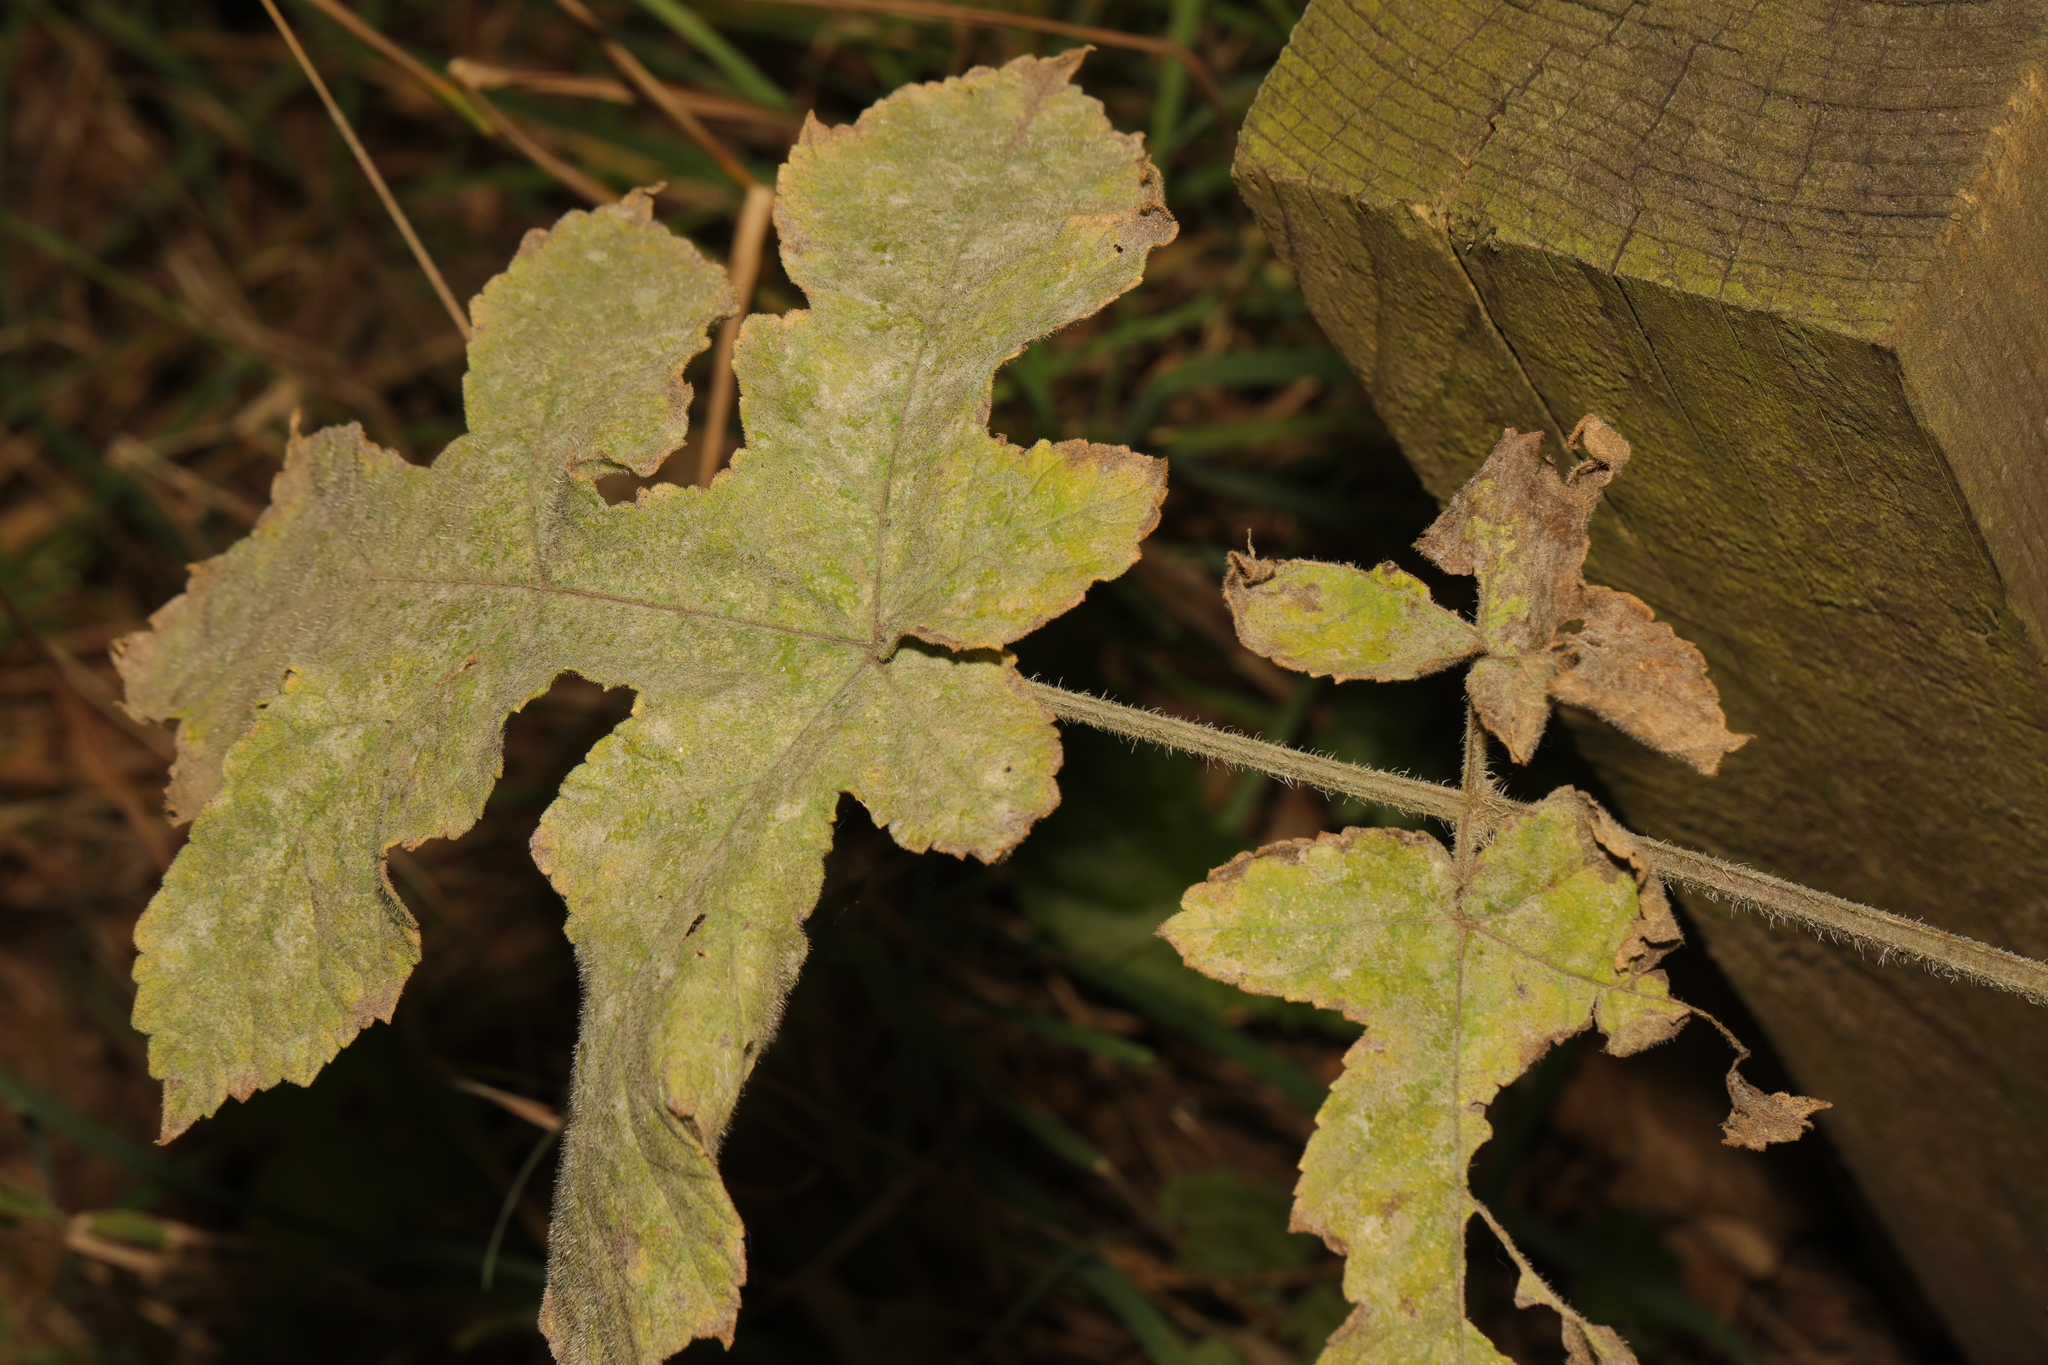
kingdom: Plantae
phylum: Tracheophyta
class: Magnoliopsida
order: Apiales
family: Apiaceae
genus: Heracleum
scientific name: Heracleum sphondylium
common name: Hogweed
